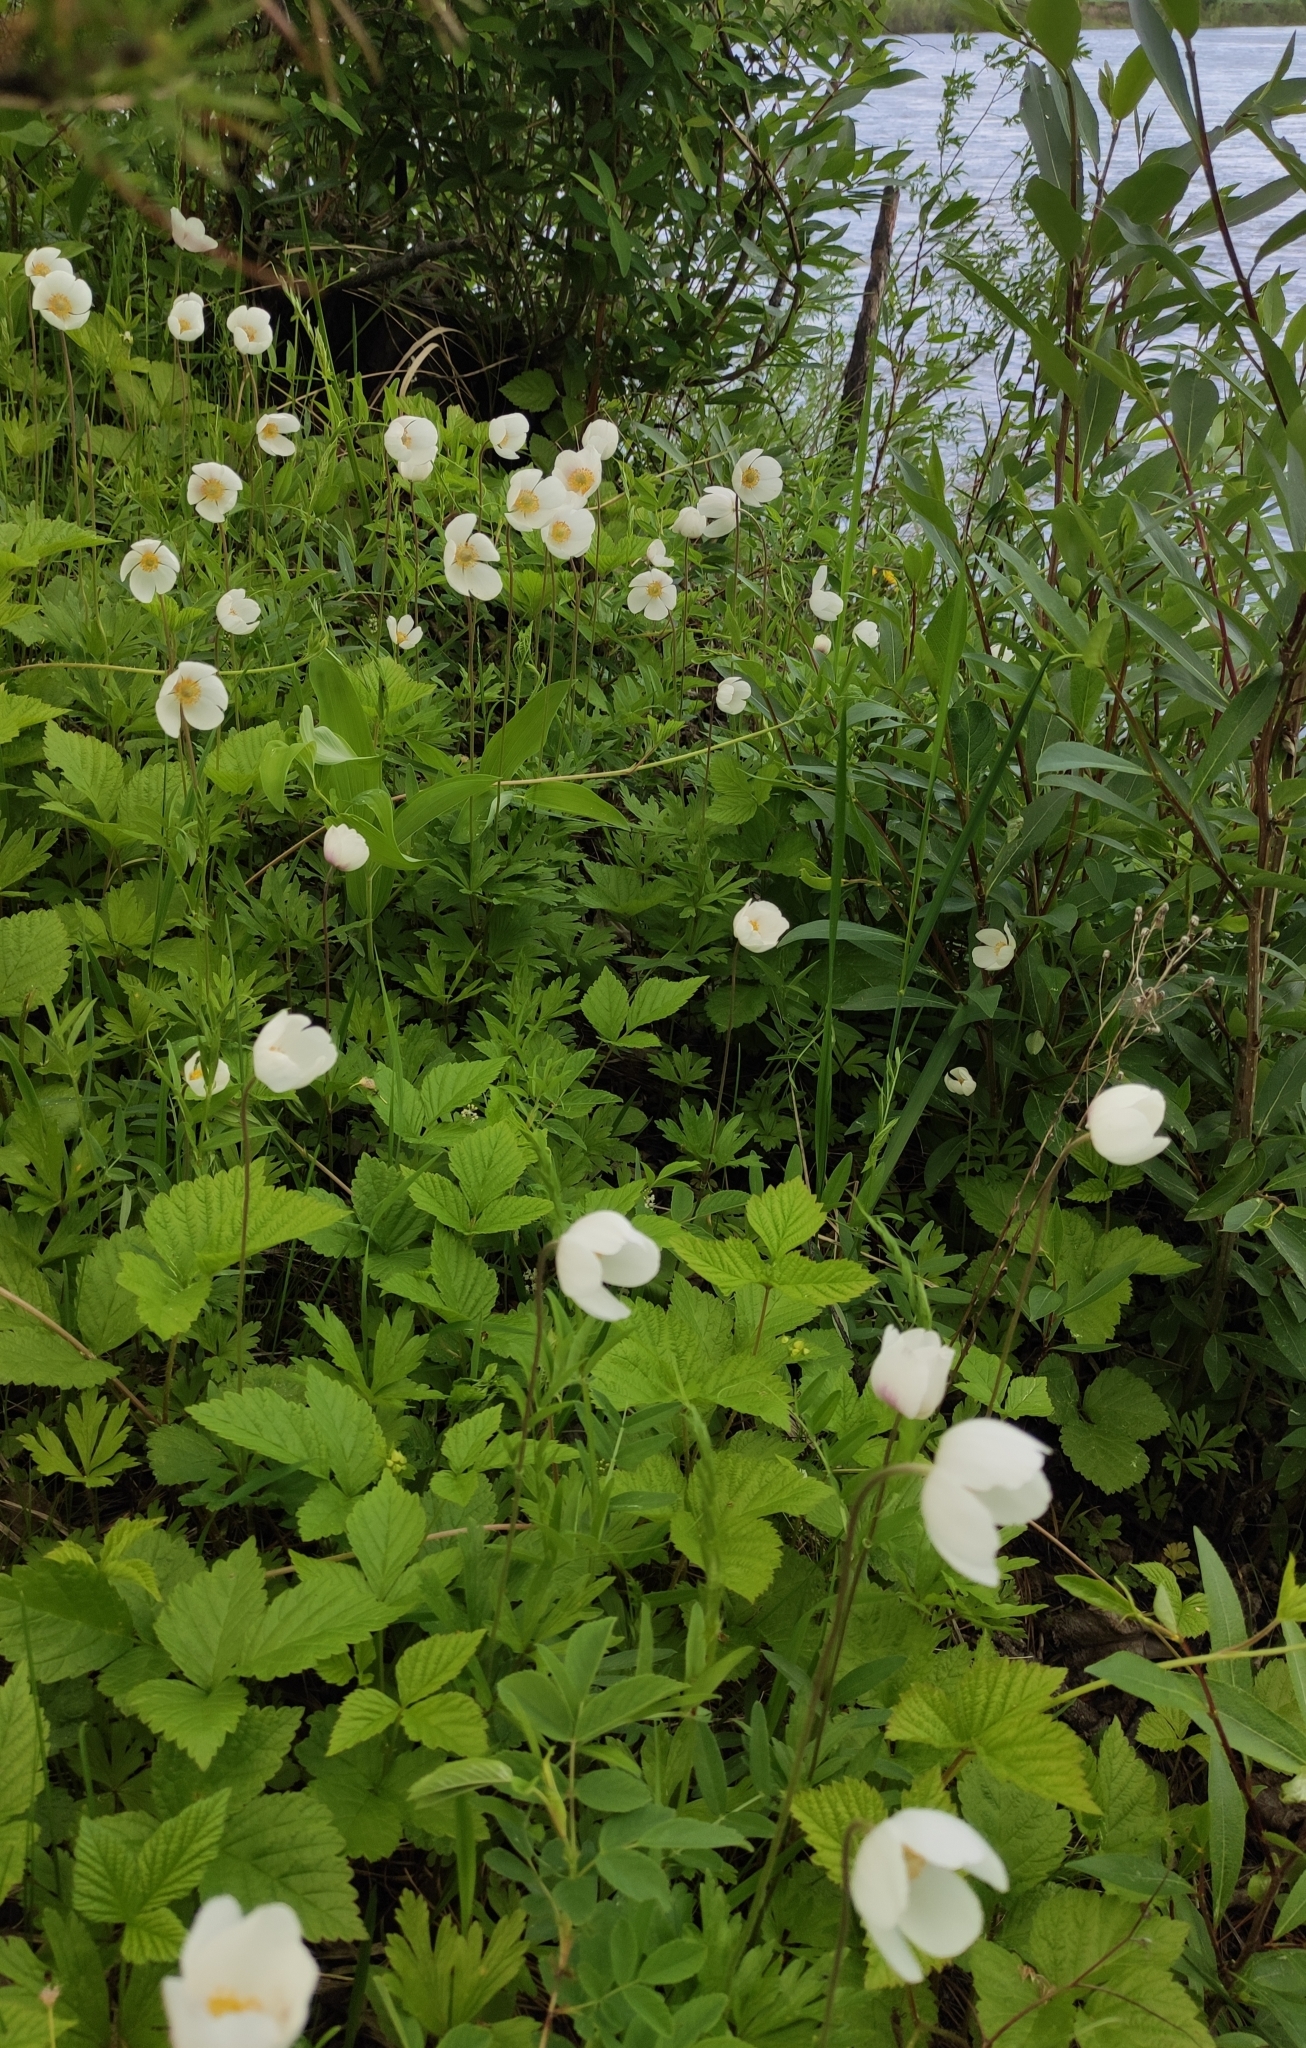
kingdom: Plantae
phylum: Tracheophyta
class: Magnoliopsida
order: Ranunculales
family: Ranunculaceae
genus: Anemone
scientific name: Anemone sylvestris
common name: Snowdrop anemone
